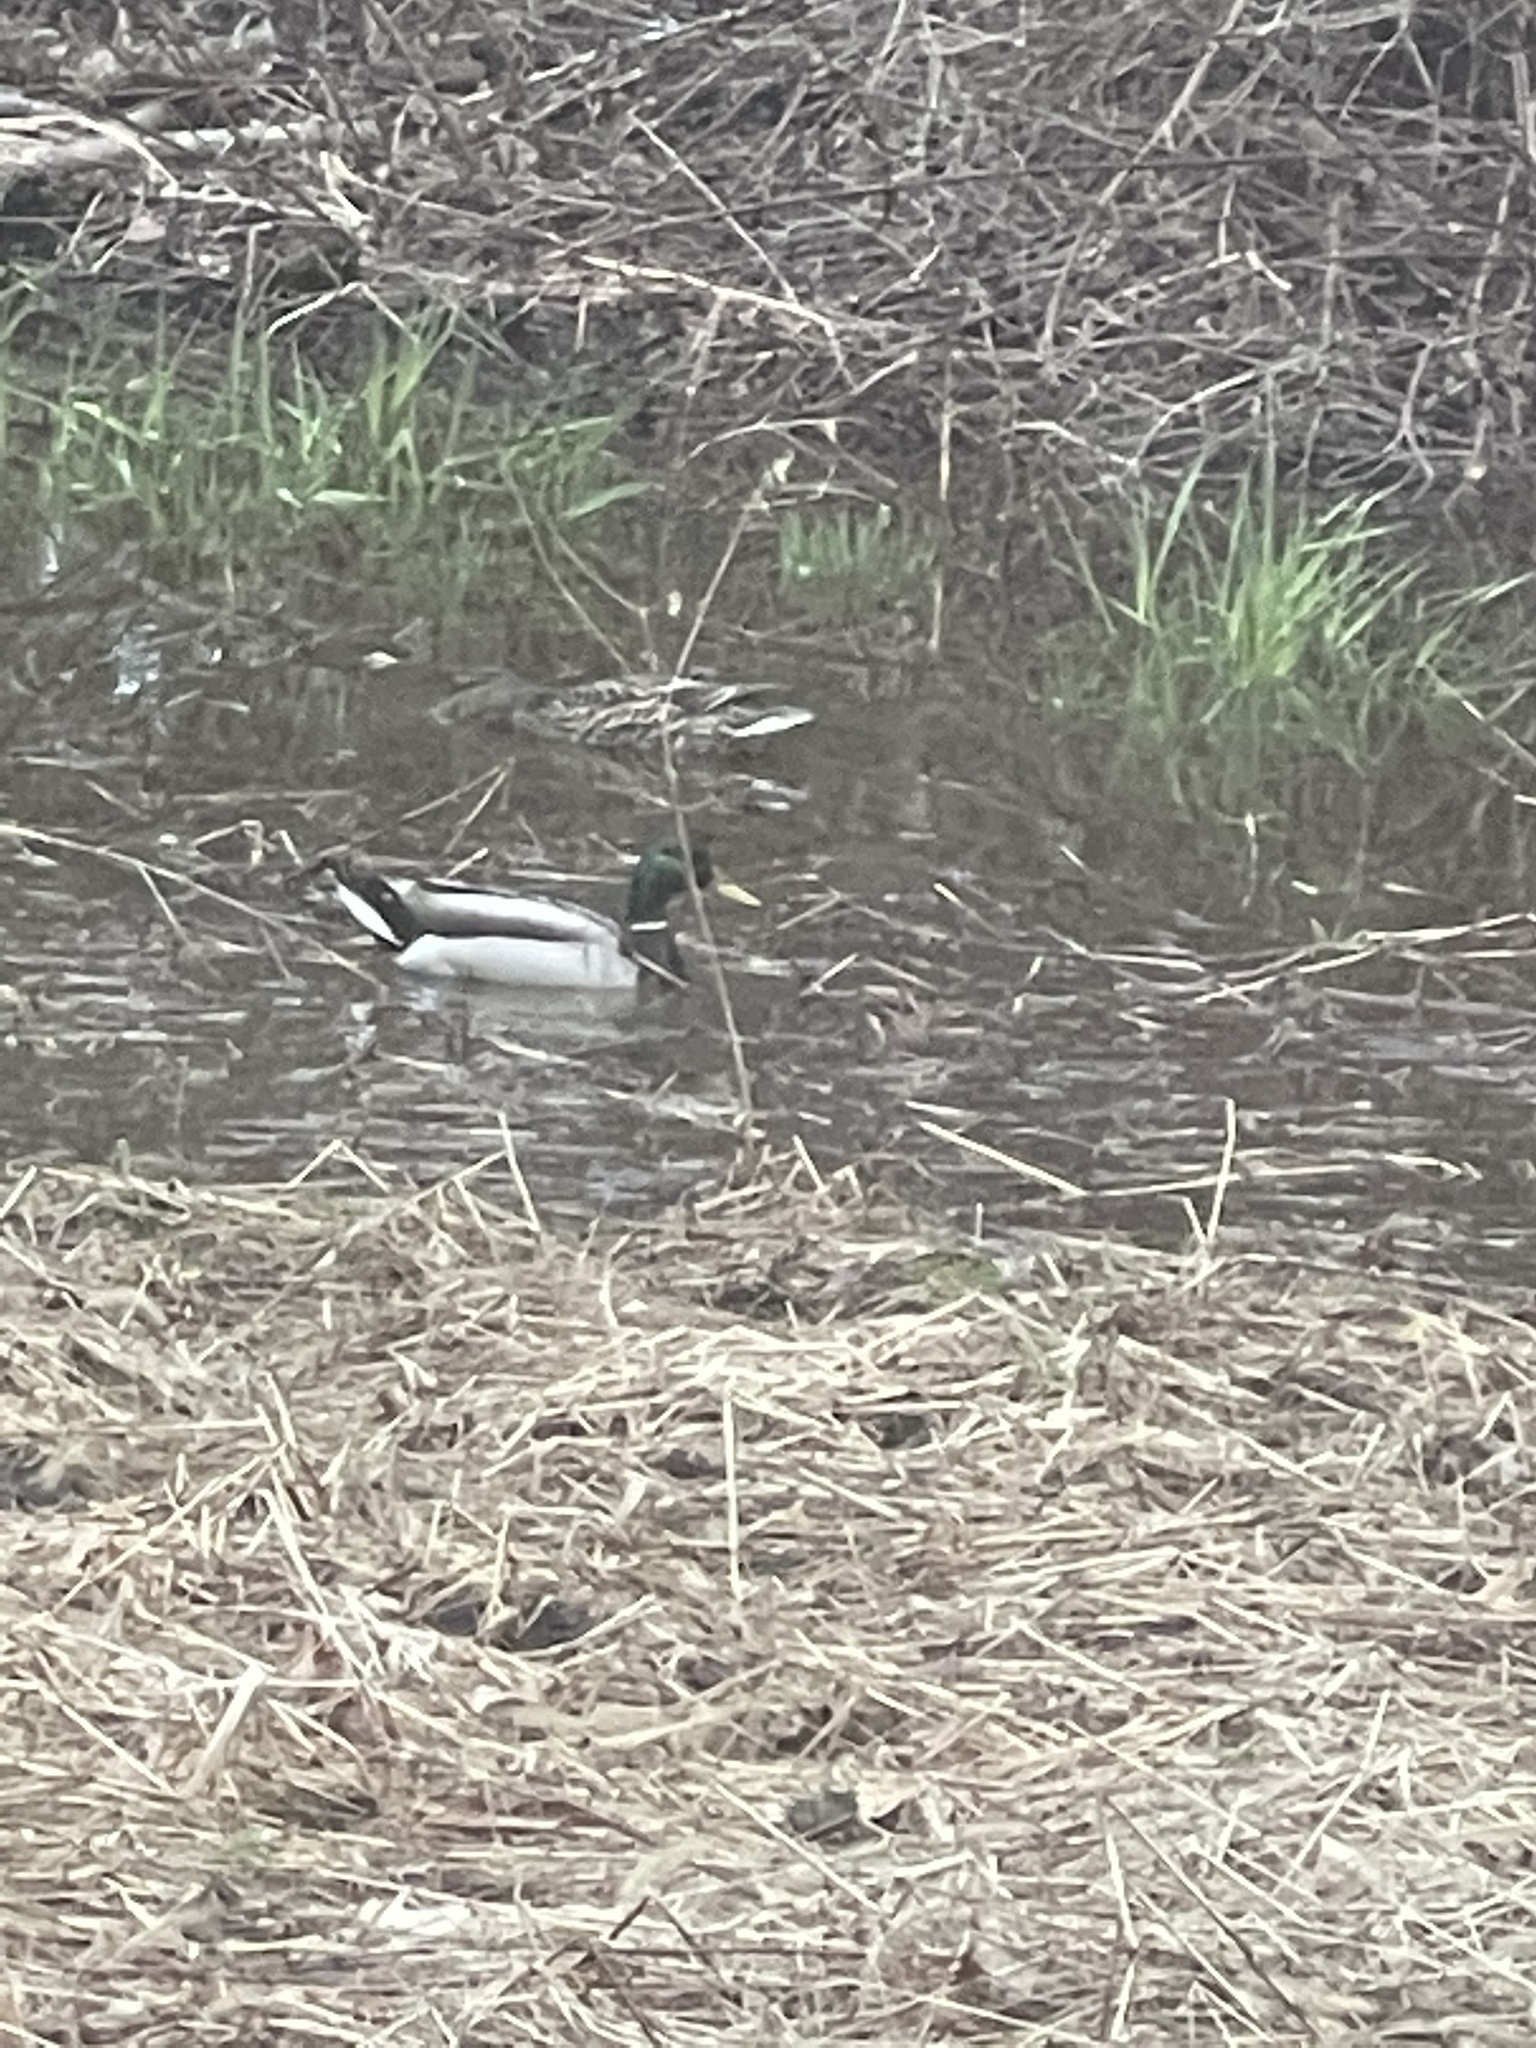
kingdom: Animalia
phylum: Chordata
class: Aves
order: Anseriformes
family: Anatidae
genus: Anas
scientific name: Anas platyrhynchos
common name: Mallard
